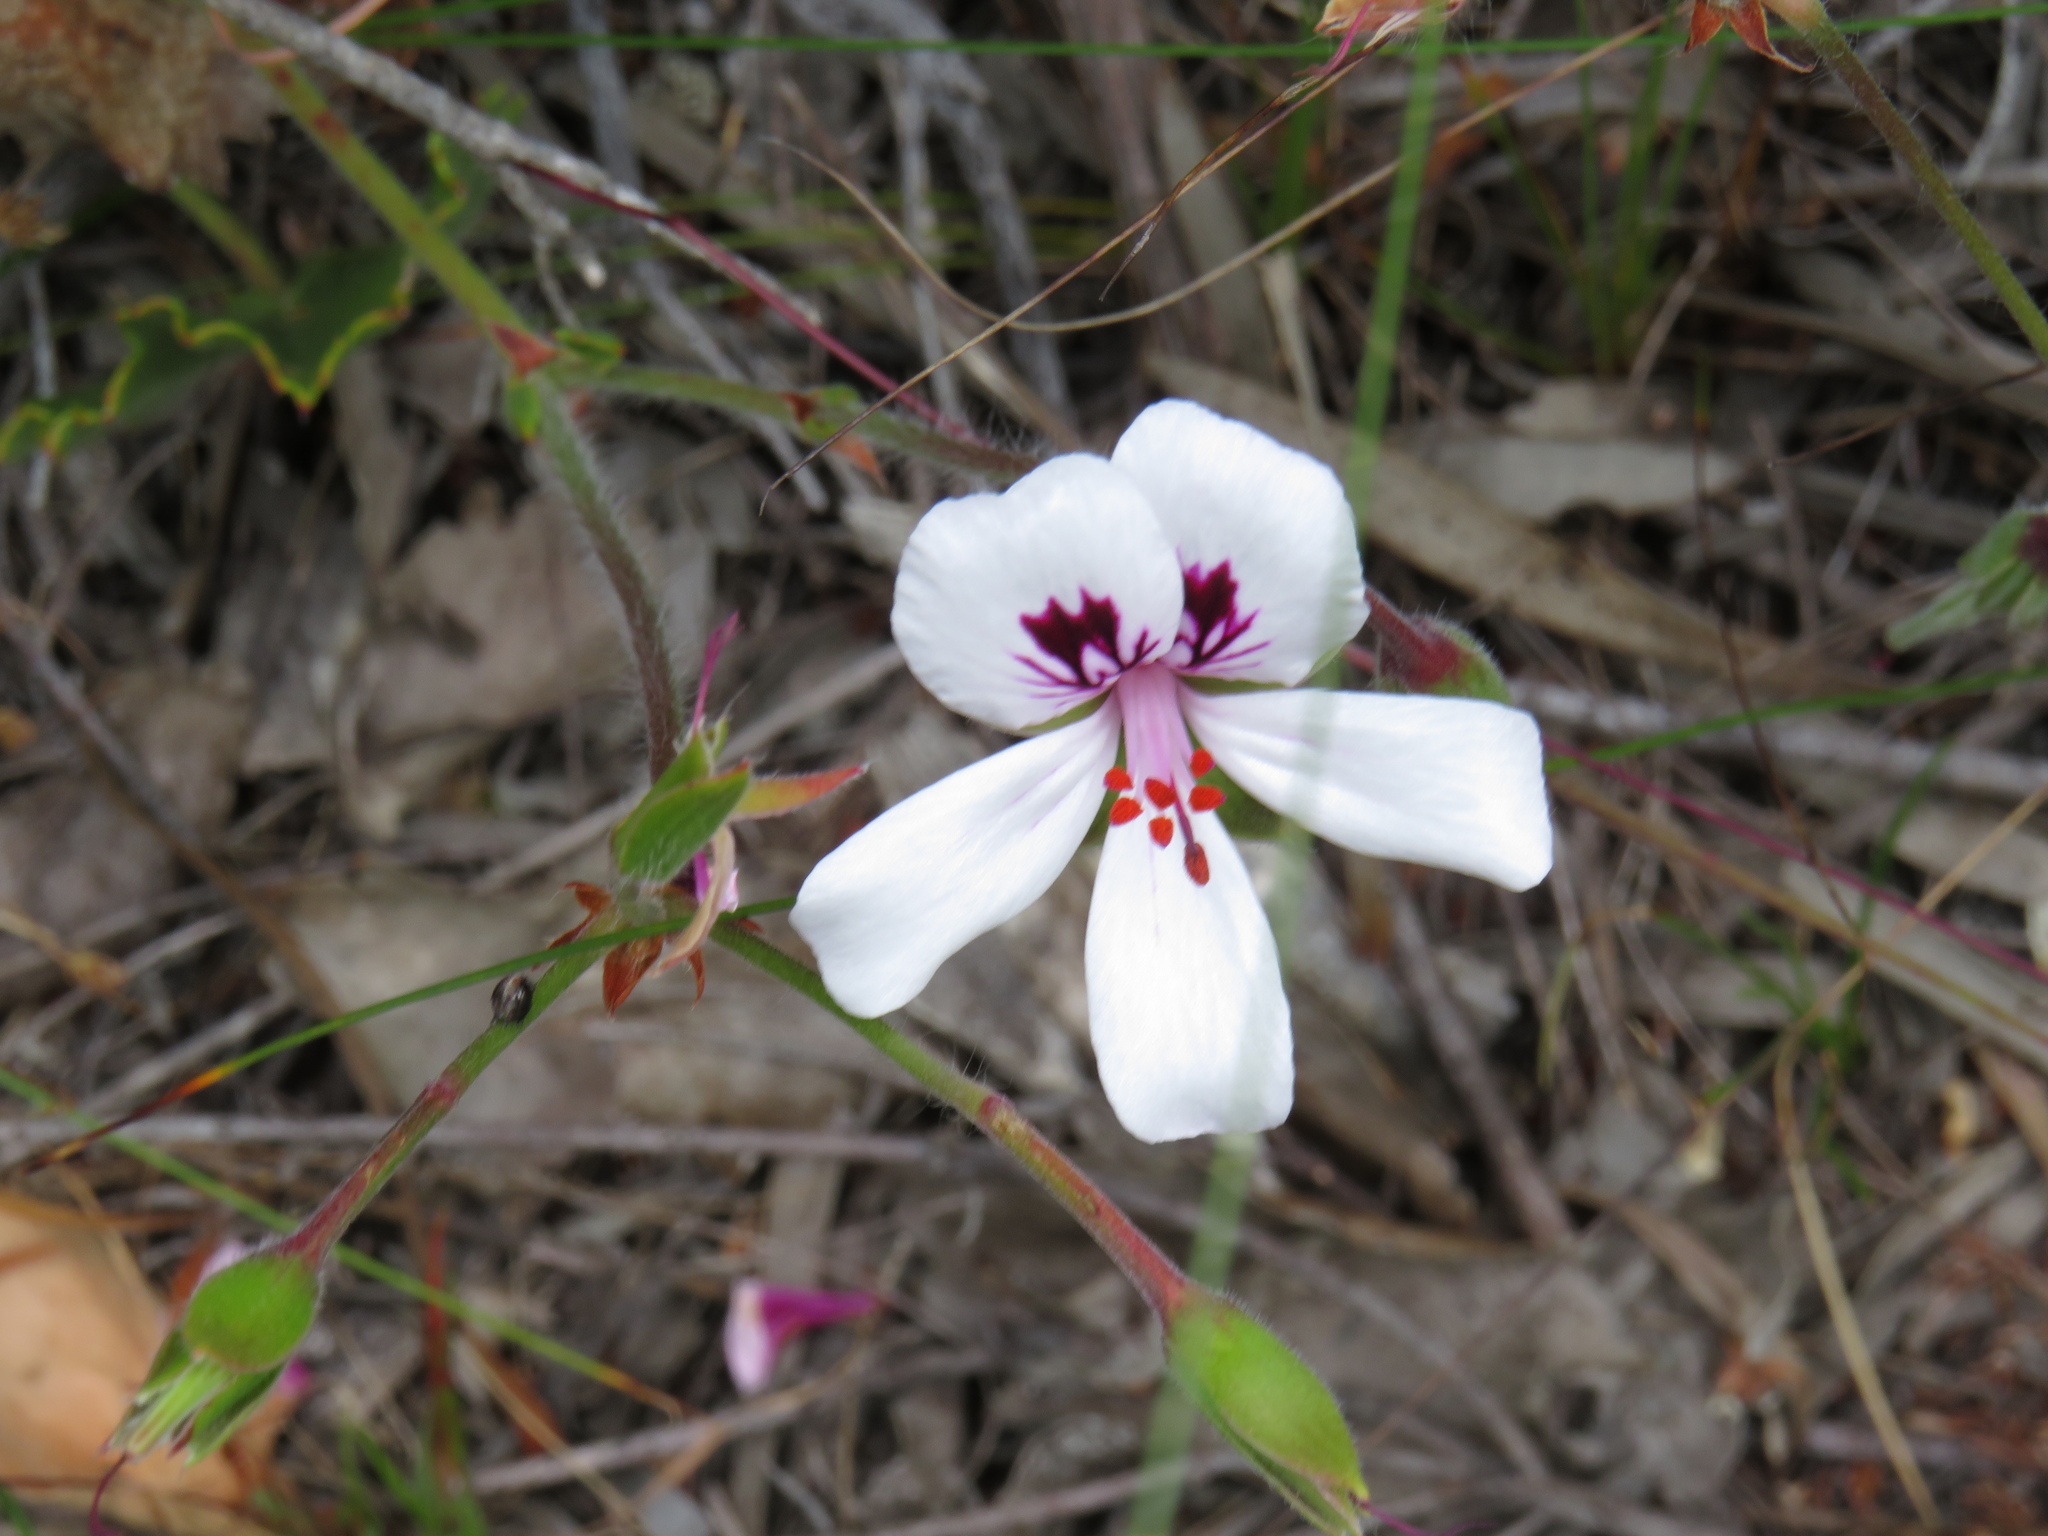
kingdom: Plantae
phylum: Tracheophyta
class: Magnoliopsida
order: Geraniales
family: Geraniaceae
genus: Pelargonium
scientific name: Pelargonium elegans
